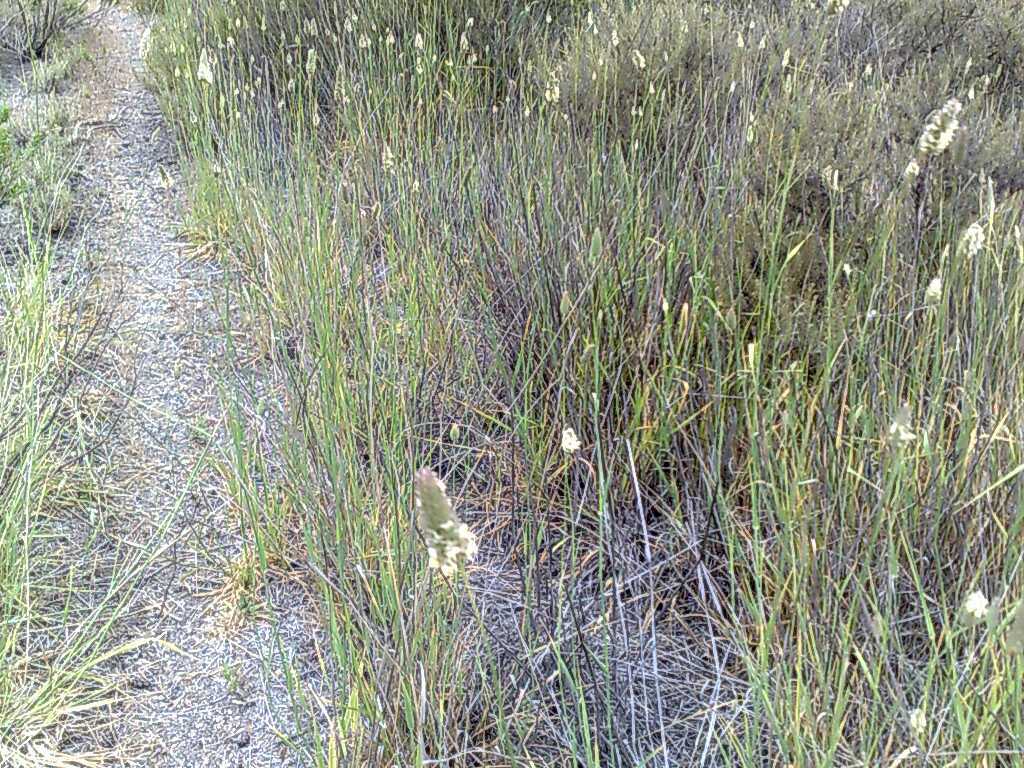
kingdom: Plantae
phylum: Tracheophyta
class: Liliopsida
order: Poales
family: Poaceae
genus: Phalaris
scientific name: Phalaris aquatica
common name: Bulbous canary-grass
